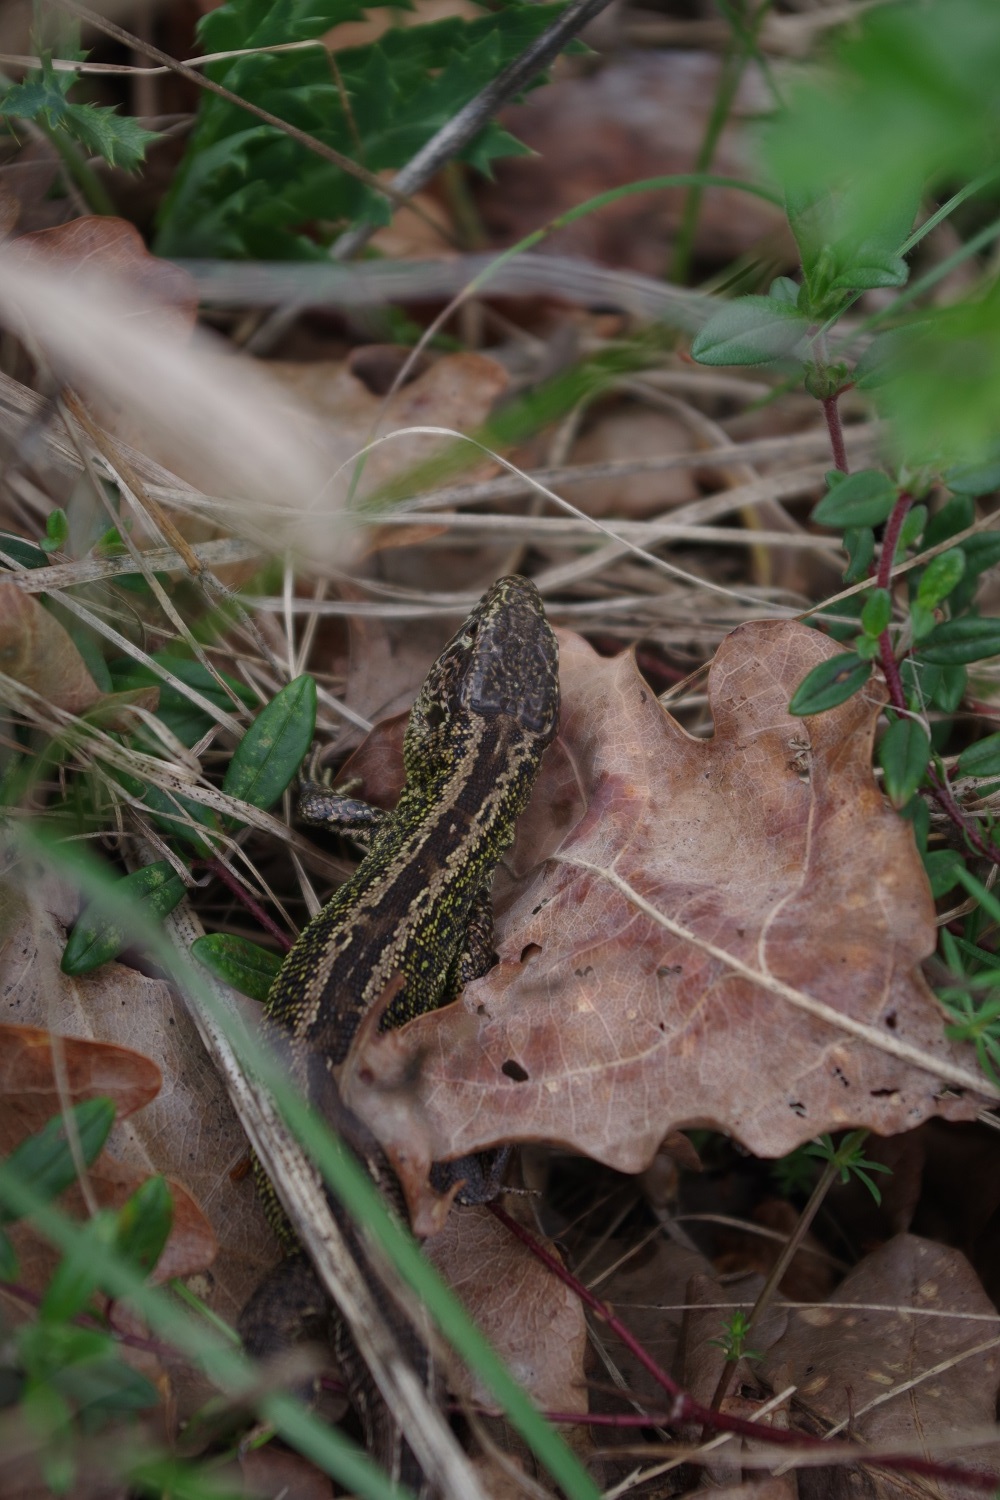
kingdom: Animalia
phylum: Chordata
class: Squamata
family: Lacertidae
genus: Lacerta
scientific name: Lacerta agilis
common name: Sand lizard
